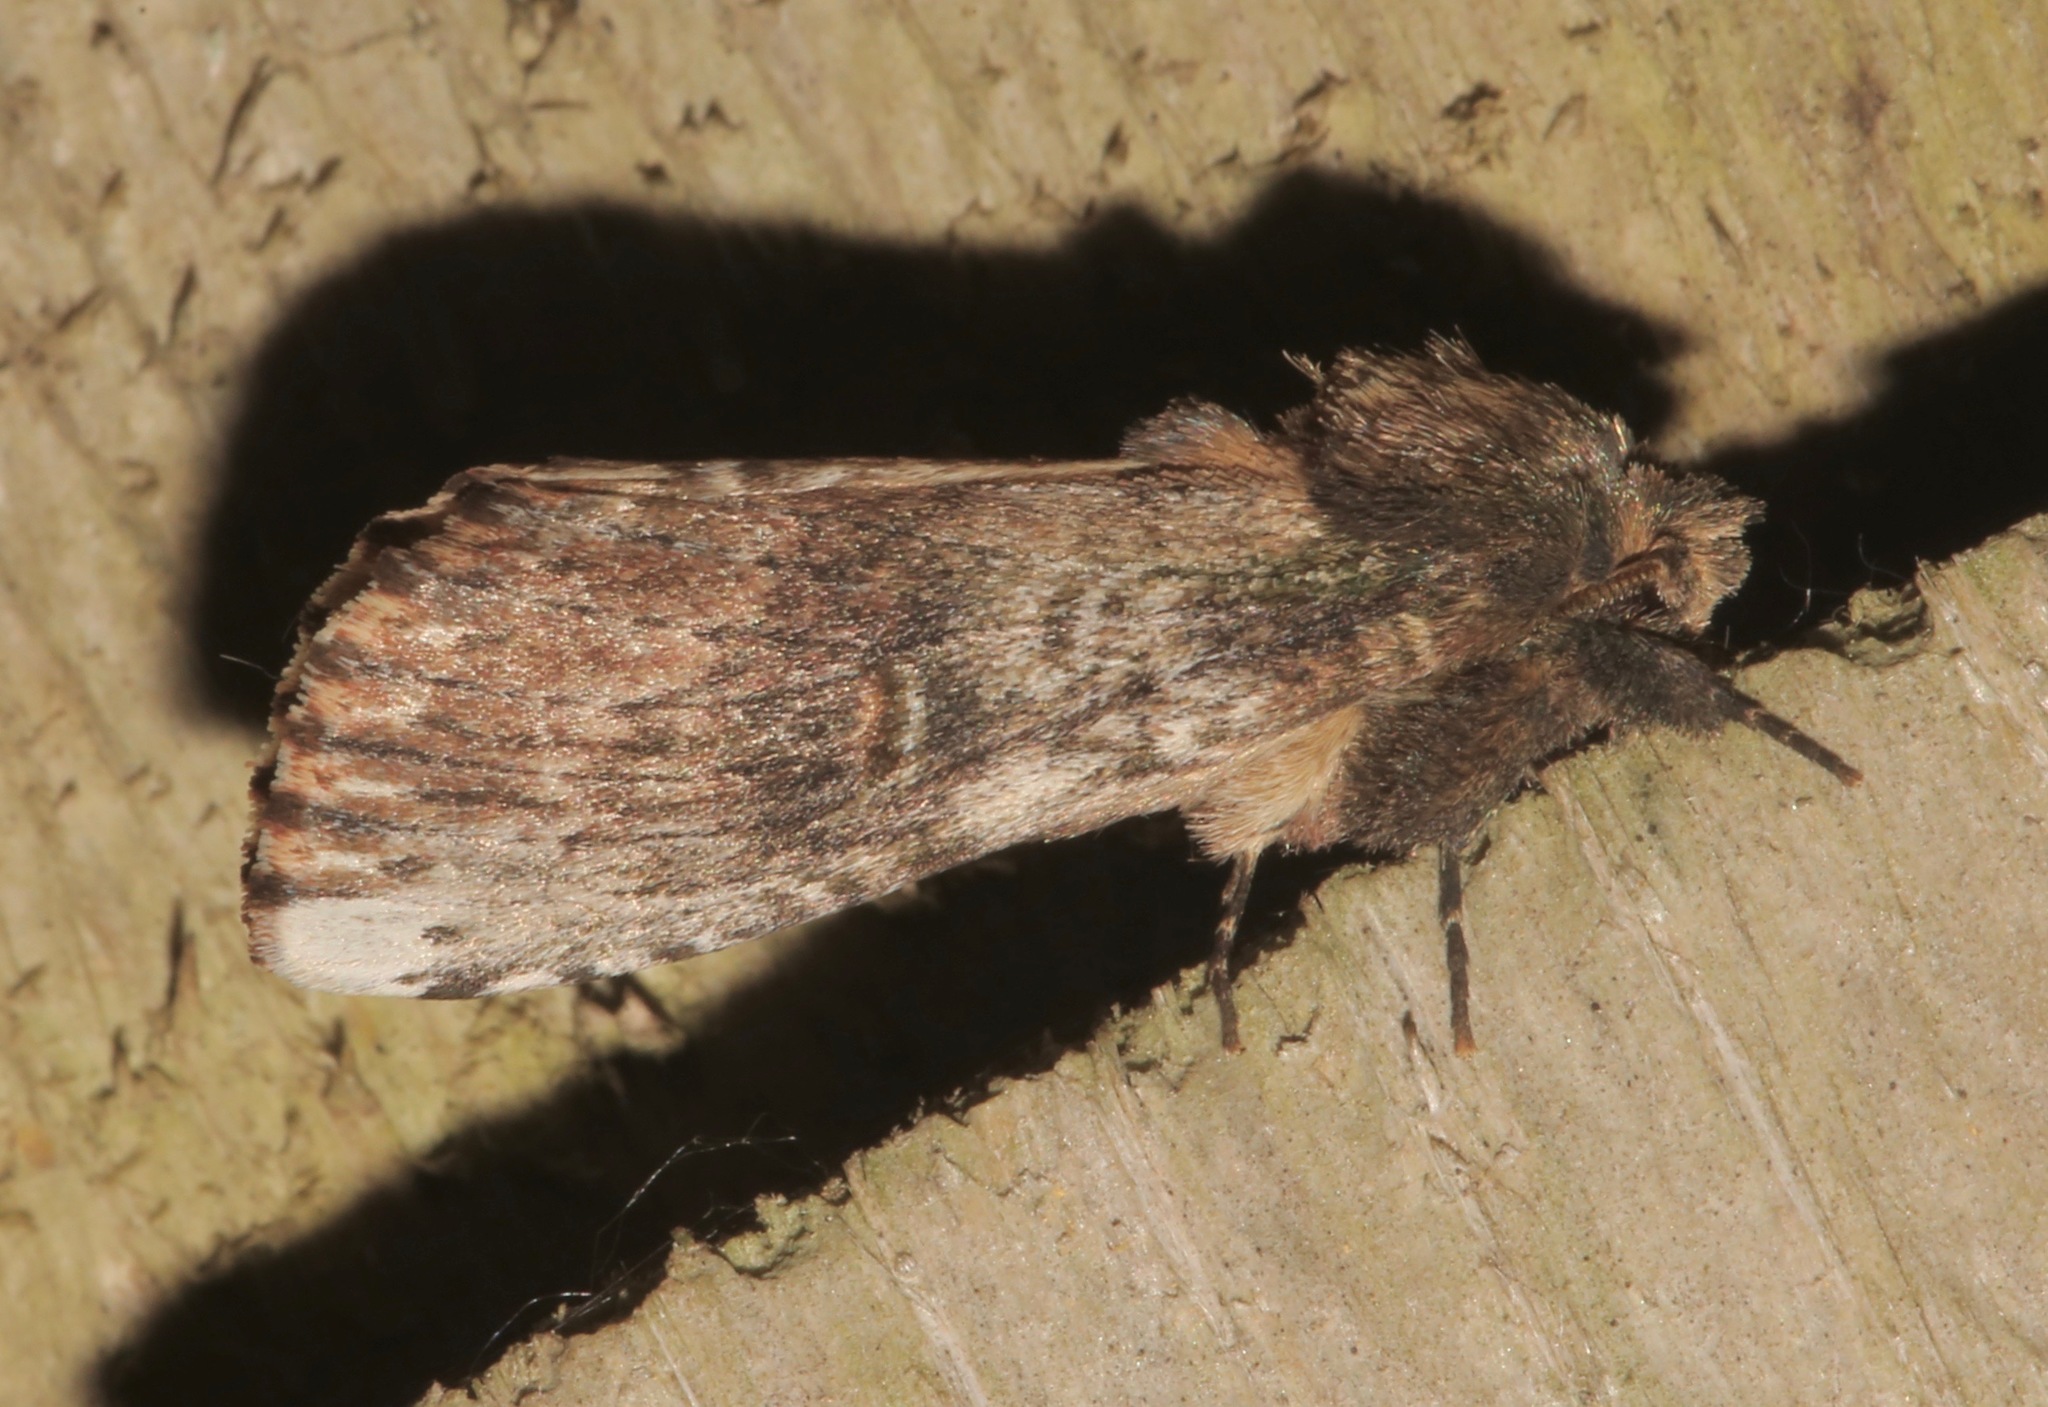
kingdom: Animalia
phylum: Arthropoda
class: Insecta
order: Lepidoptera
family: Notodontidae
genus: Schizura
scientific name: Schizura ipomaeae
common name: Morning-glory prominent
